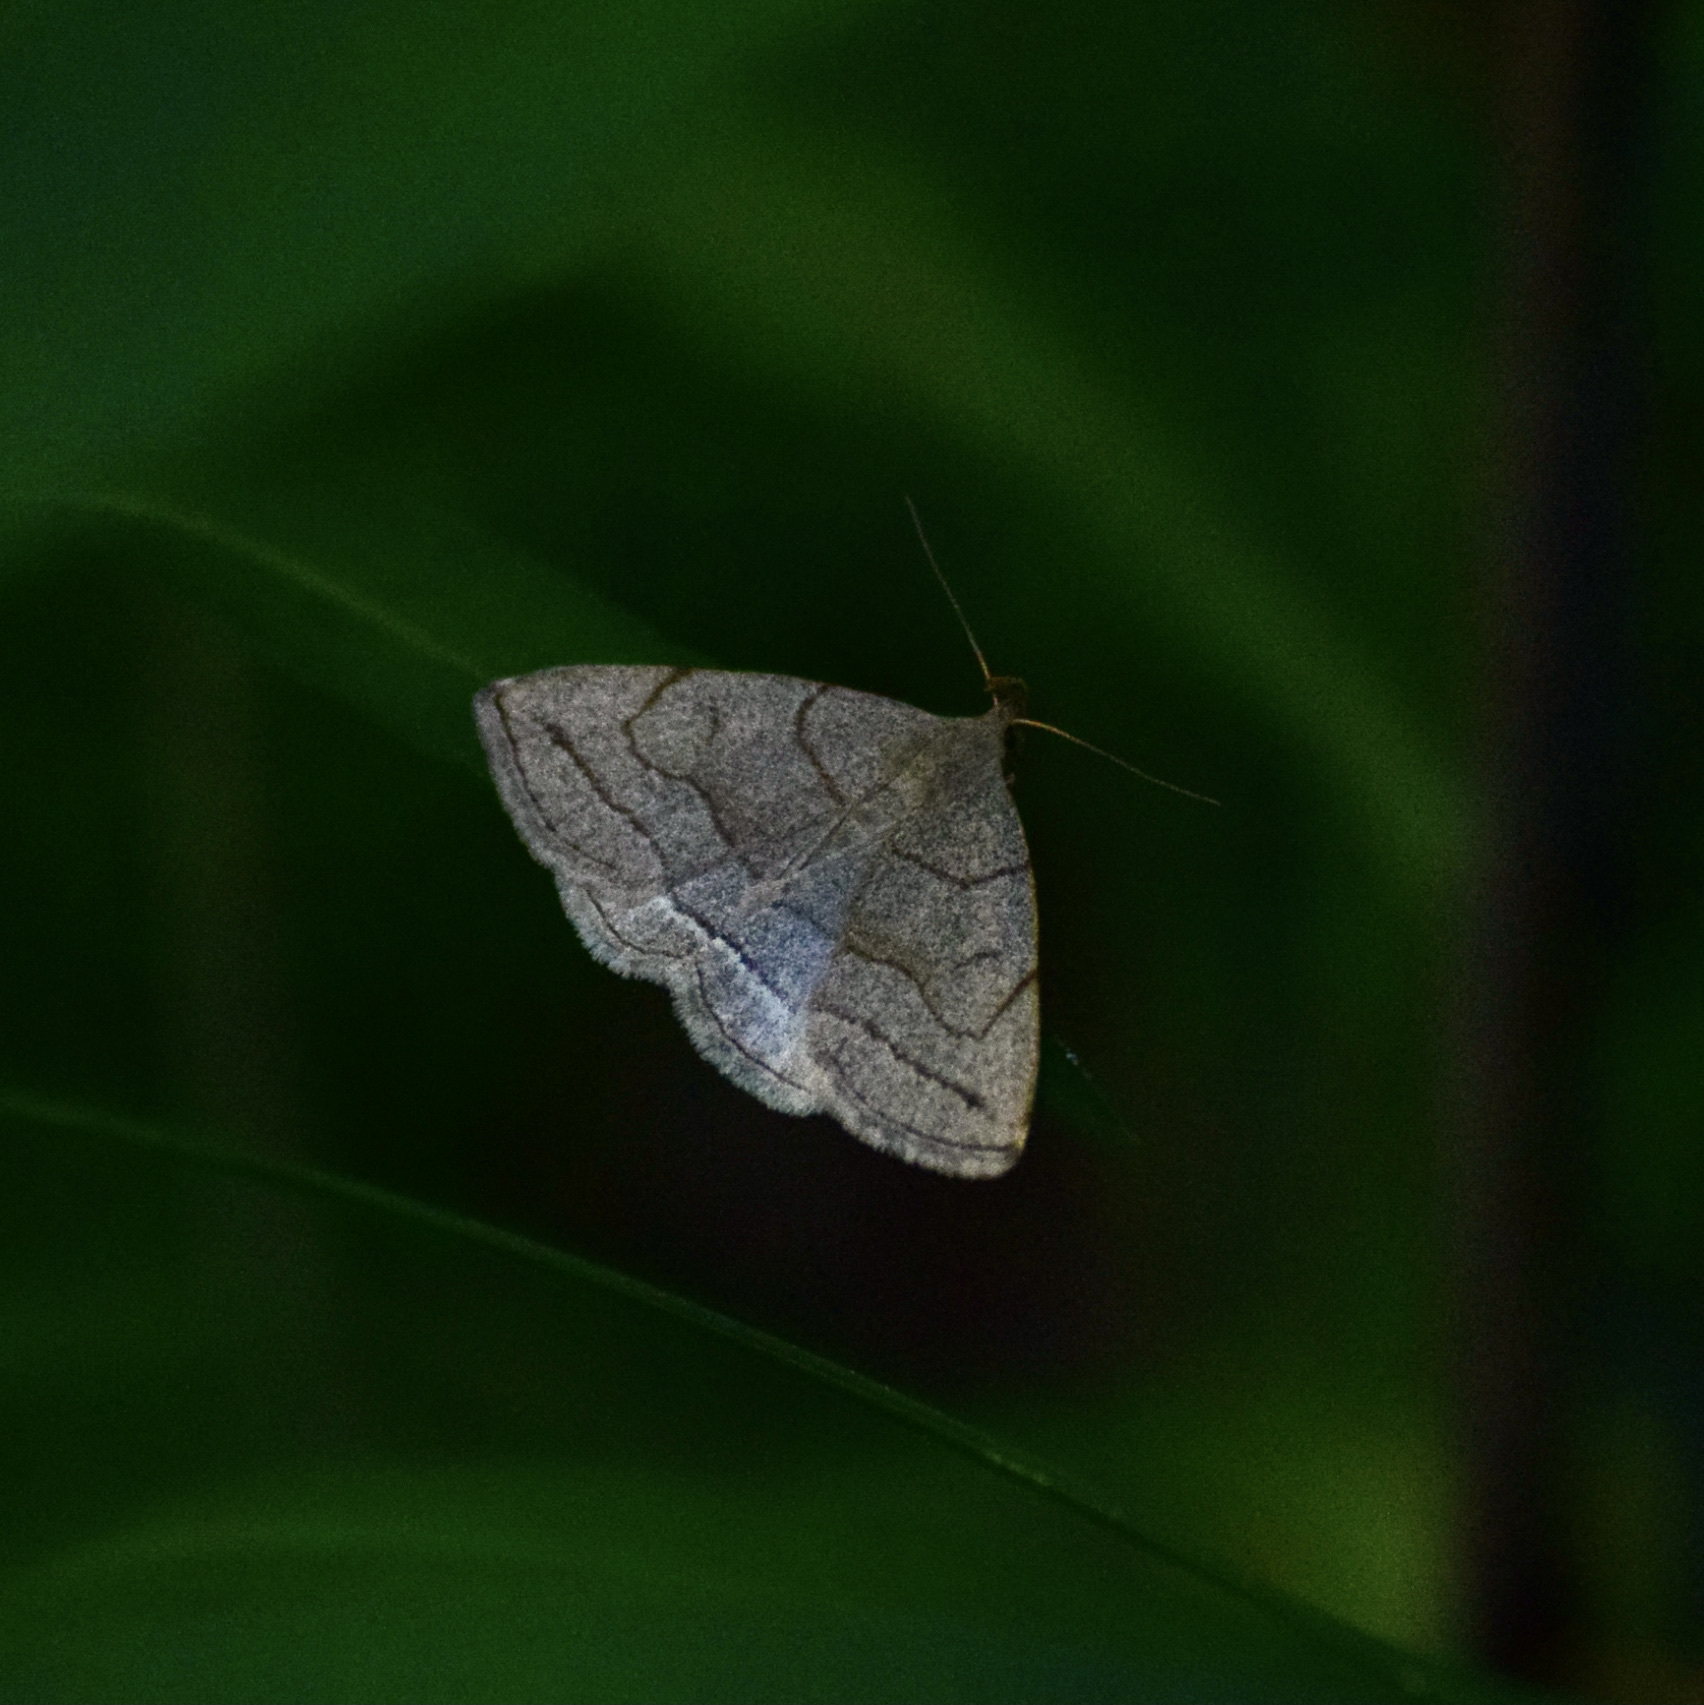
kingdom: Animalia
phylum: Arthropoda
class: Insecta
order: Lepidoptera
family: Erebidae
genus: Zanclognatha
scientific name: Zanclognatha pedipilalis
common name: Grayish fan-foot
